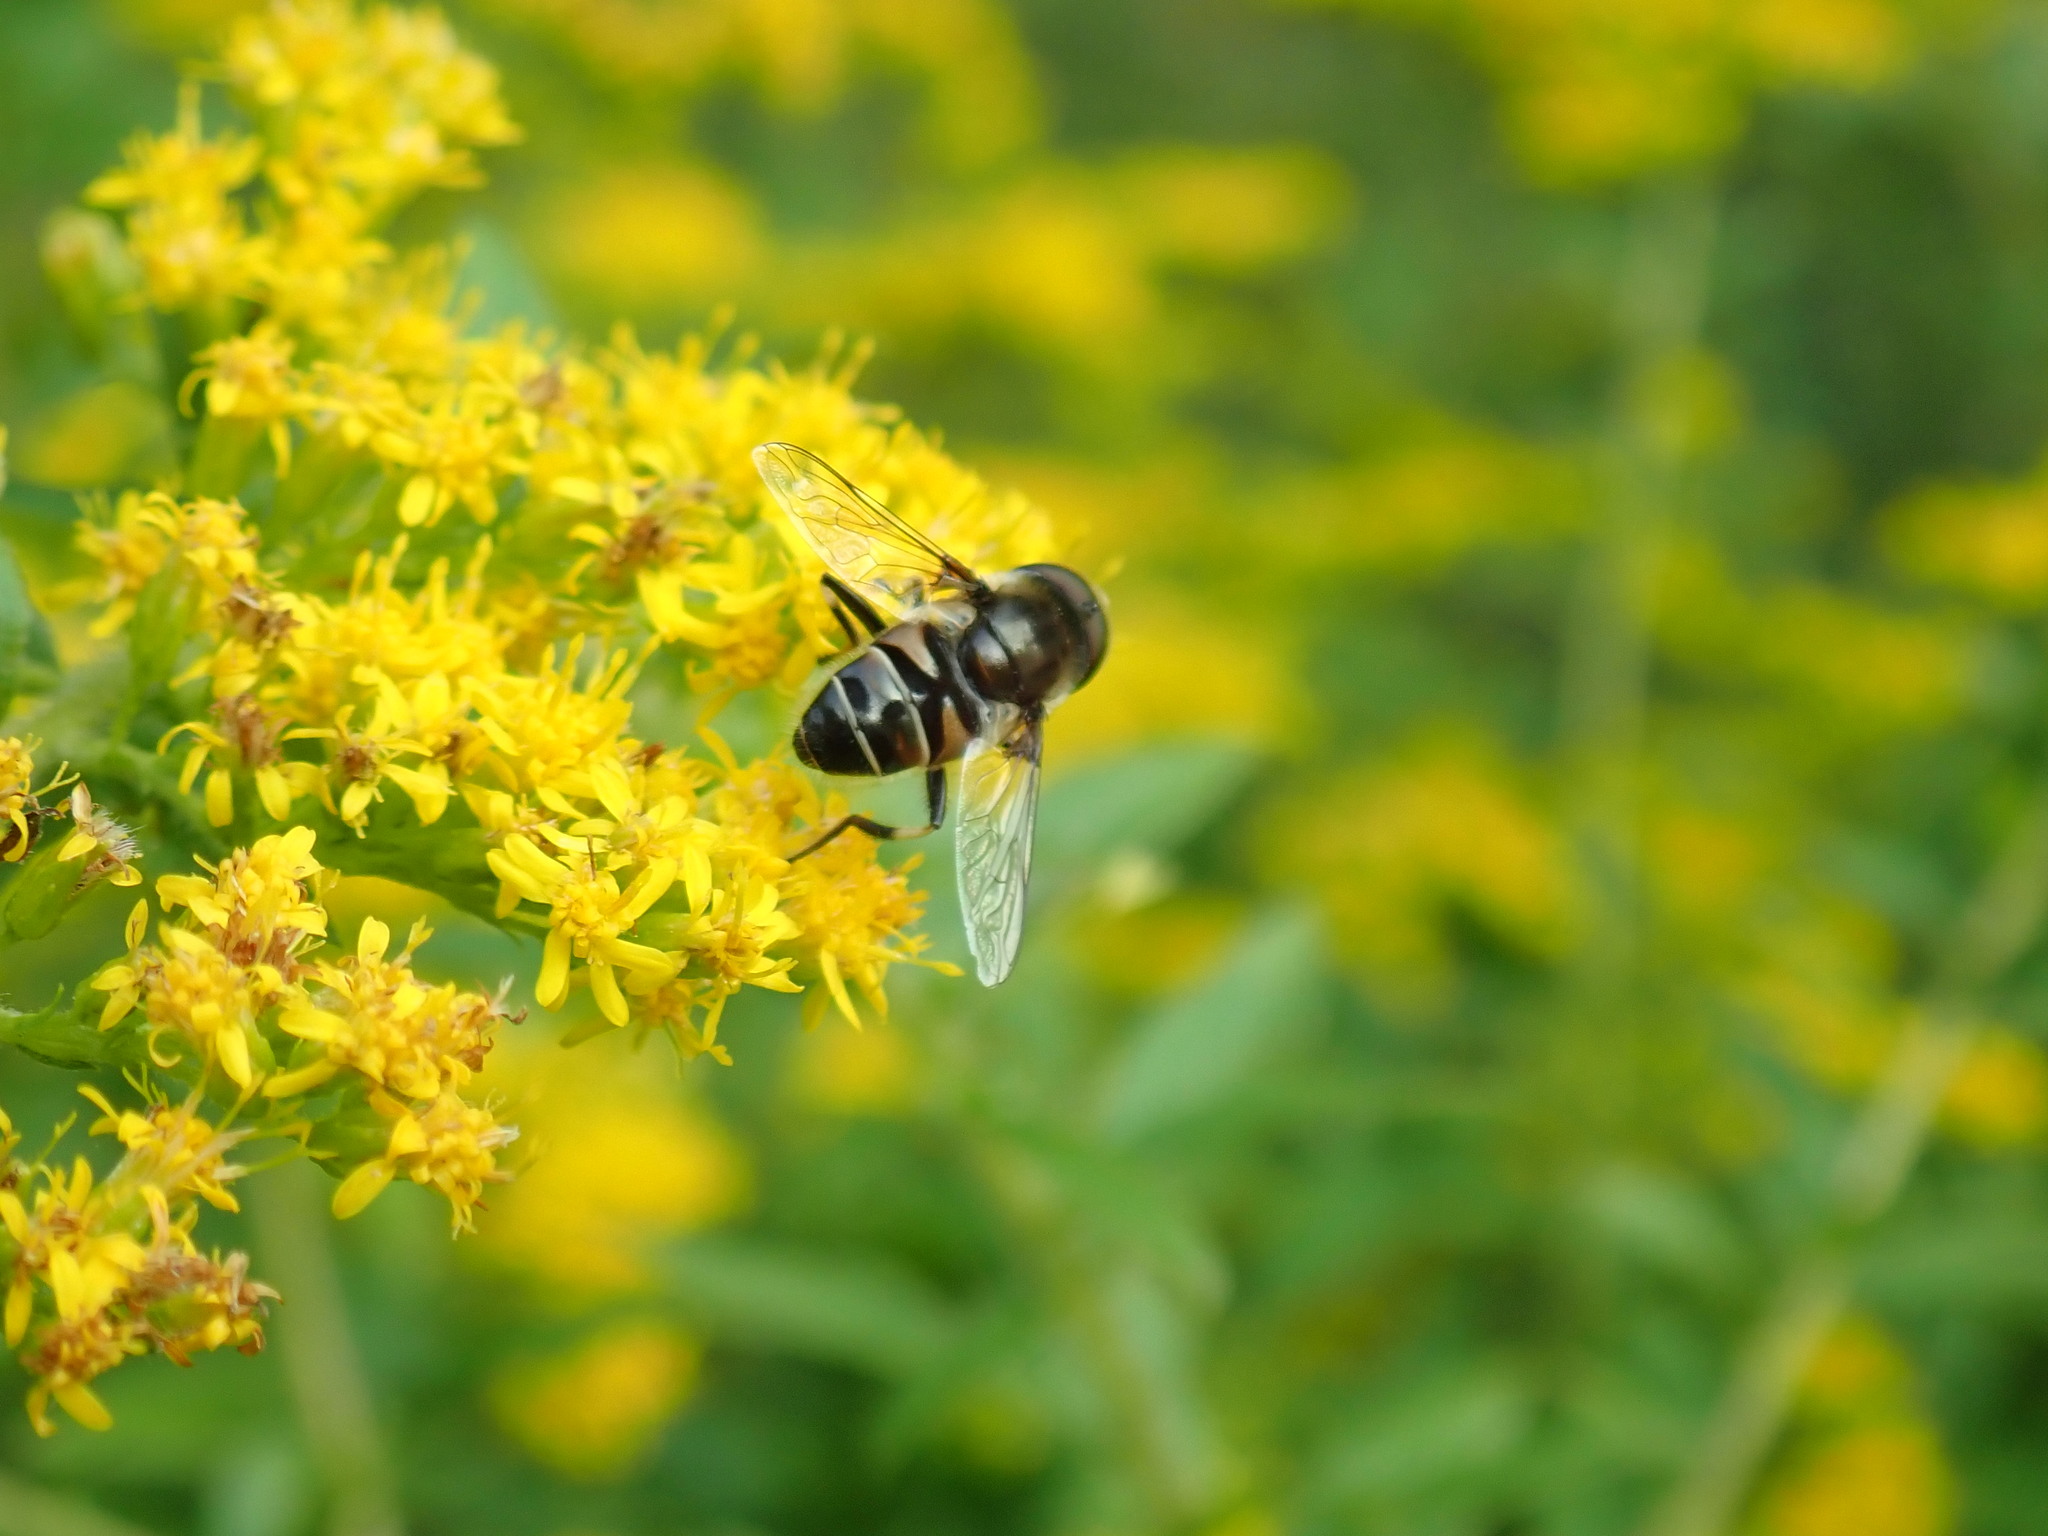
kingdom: Animalia
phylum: Arthropoda
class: Insecta
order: Diptera
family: Syrphidae
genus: Eristalis
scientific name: Eristalis dimidiata
